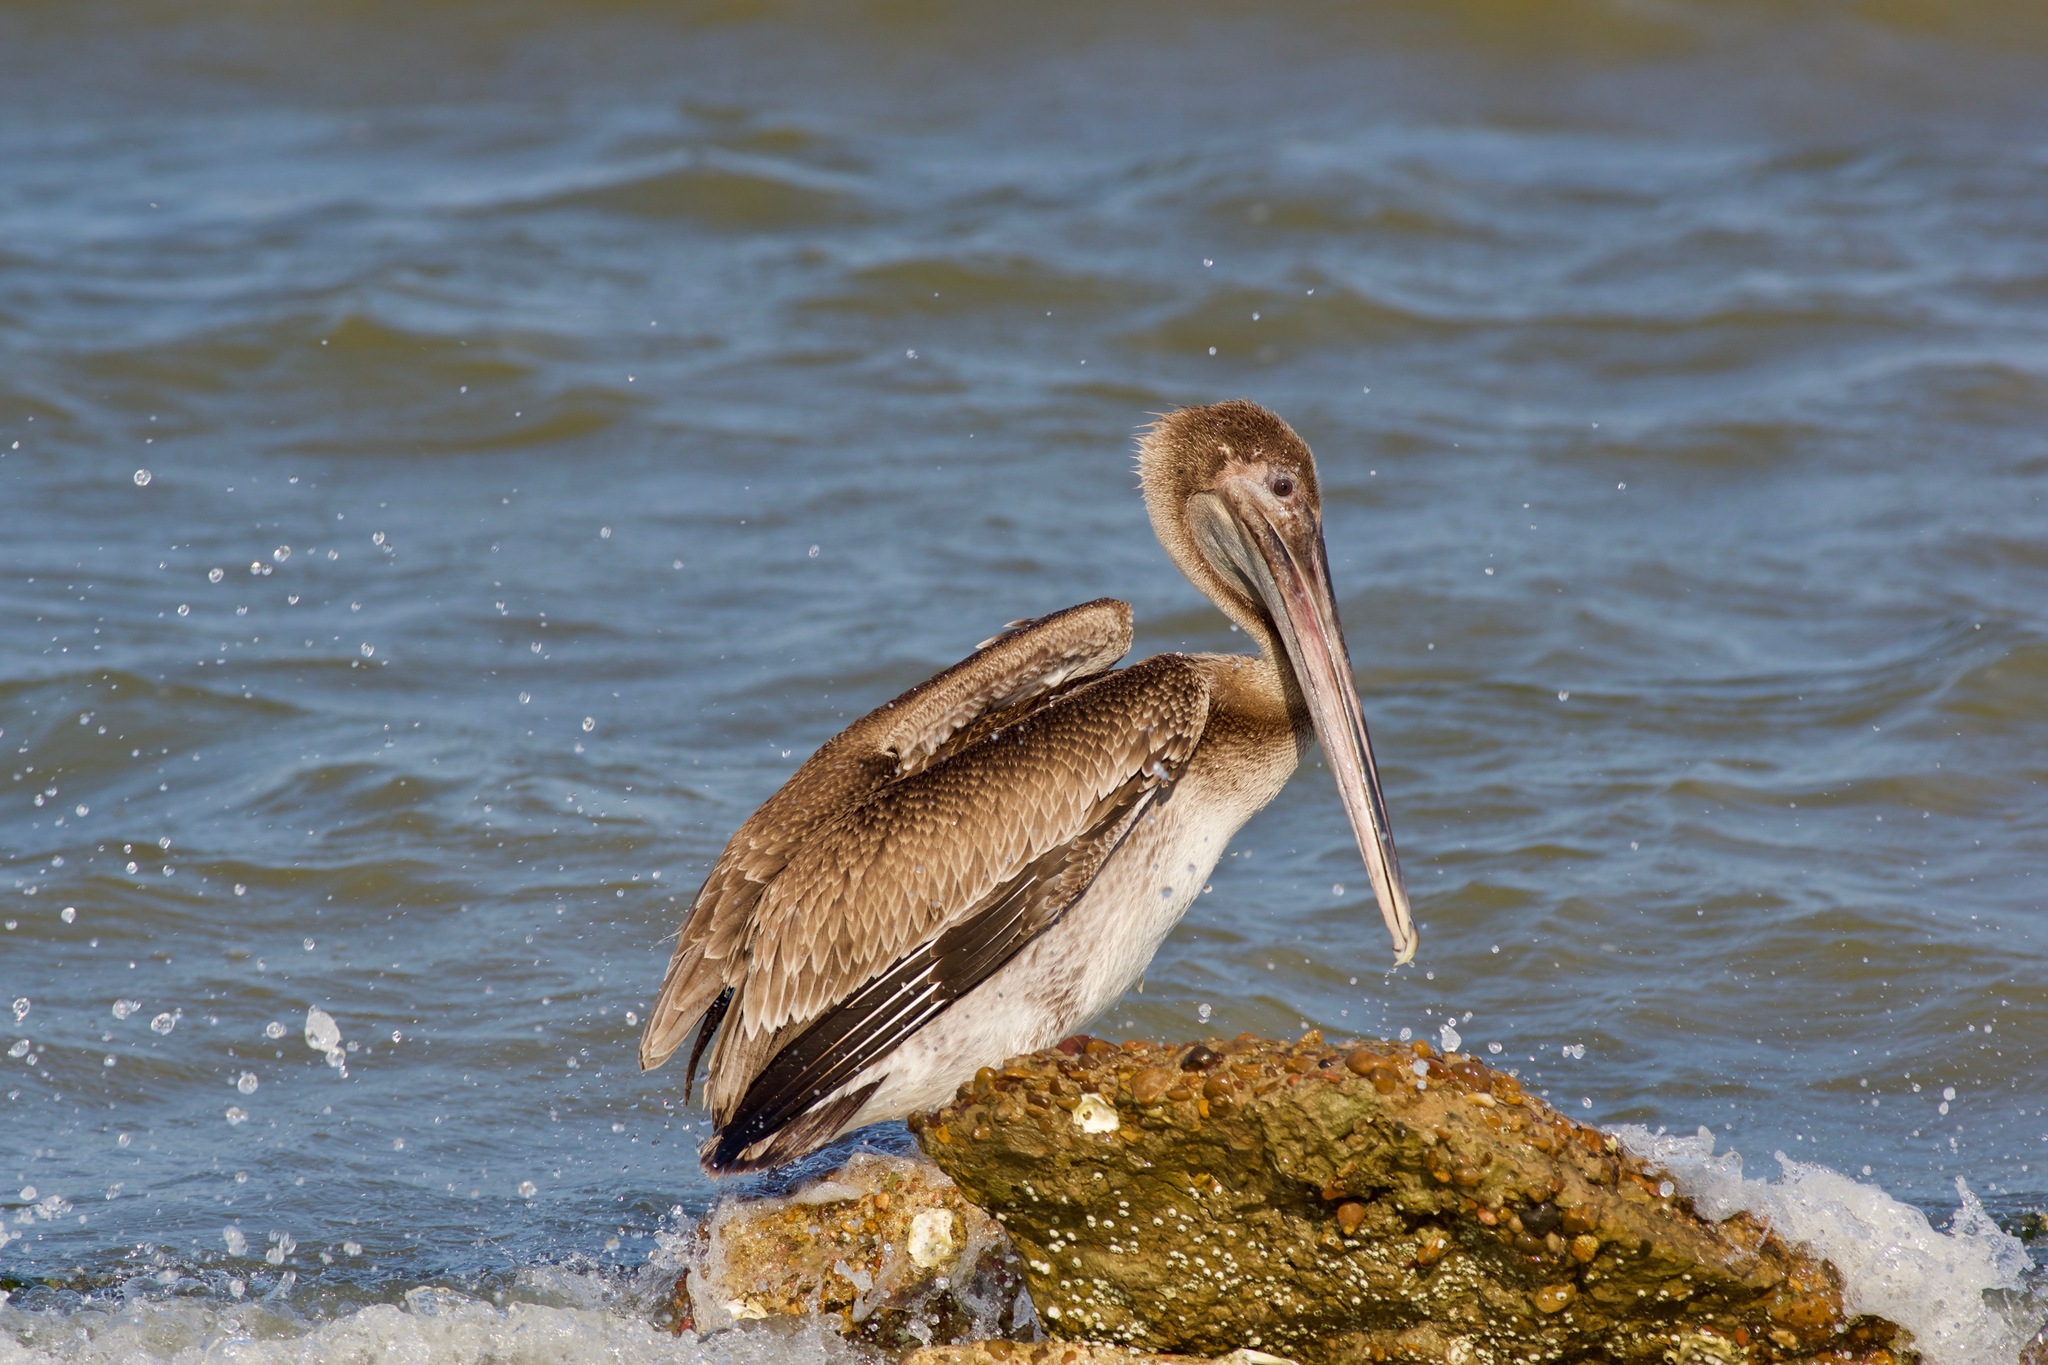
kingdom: Animalia
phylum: Chordata
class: Aves
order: Pelecaniformes
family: Pelecanidae
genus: Pelecanus
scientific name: Pelecanus occidentalis
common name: Brown pelican
